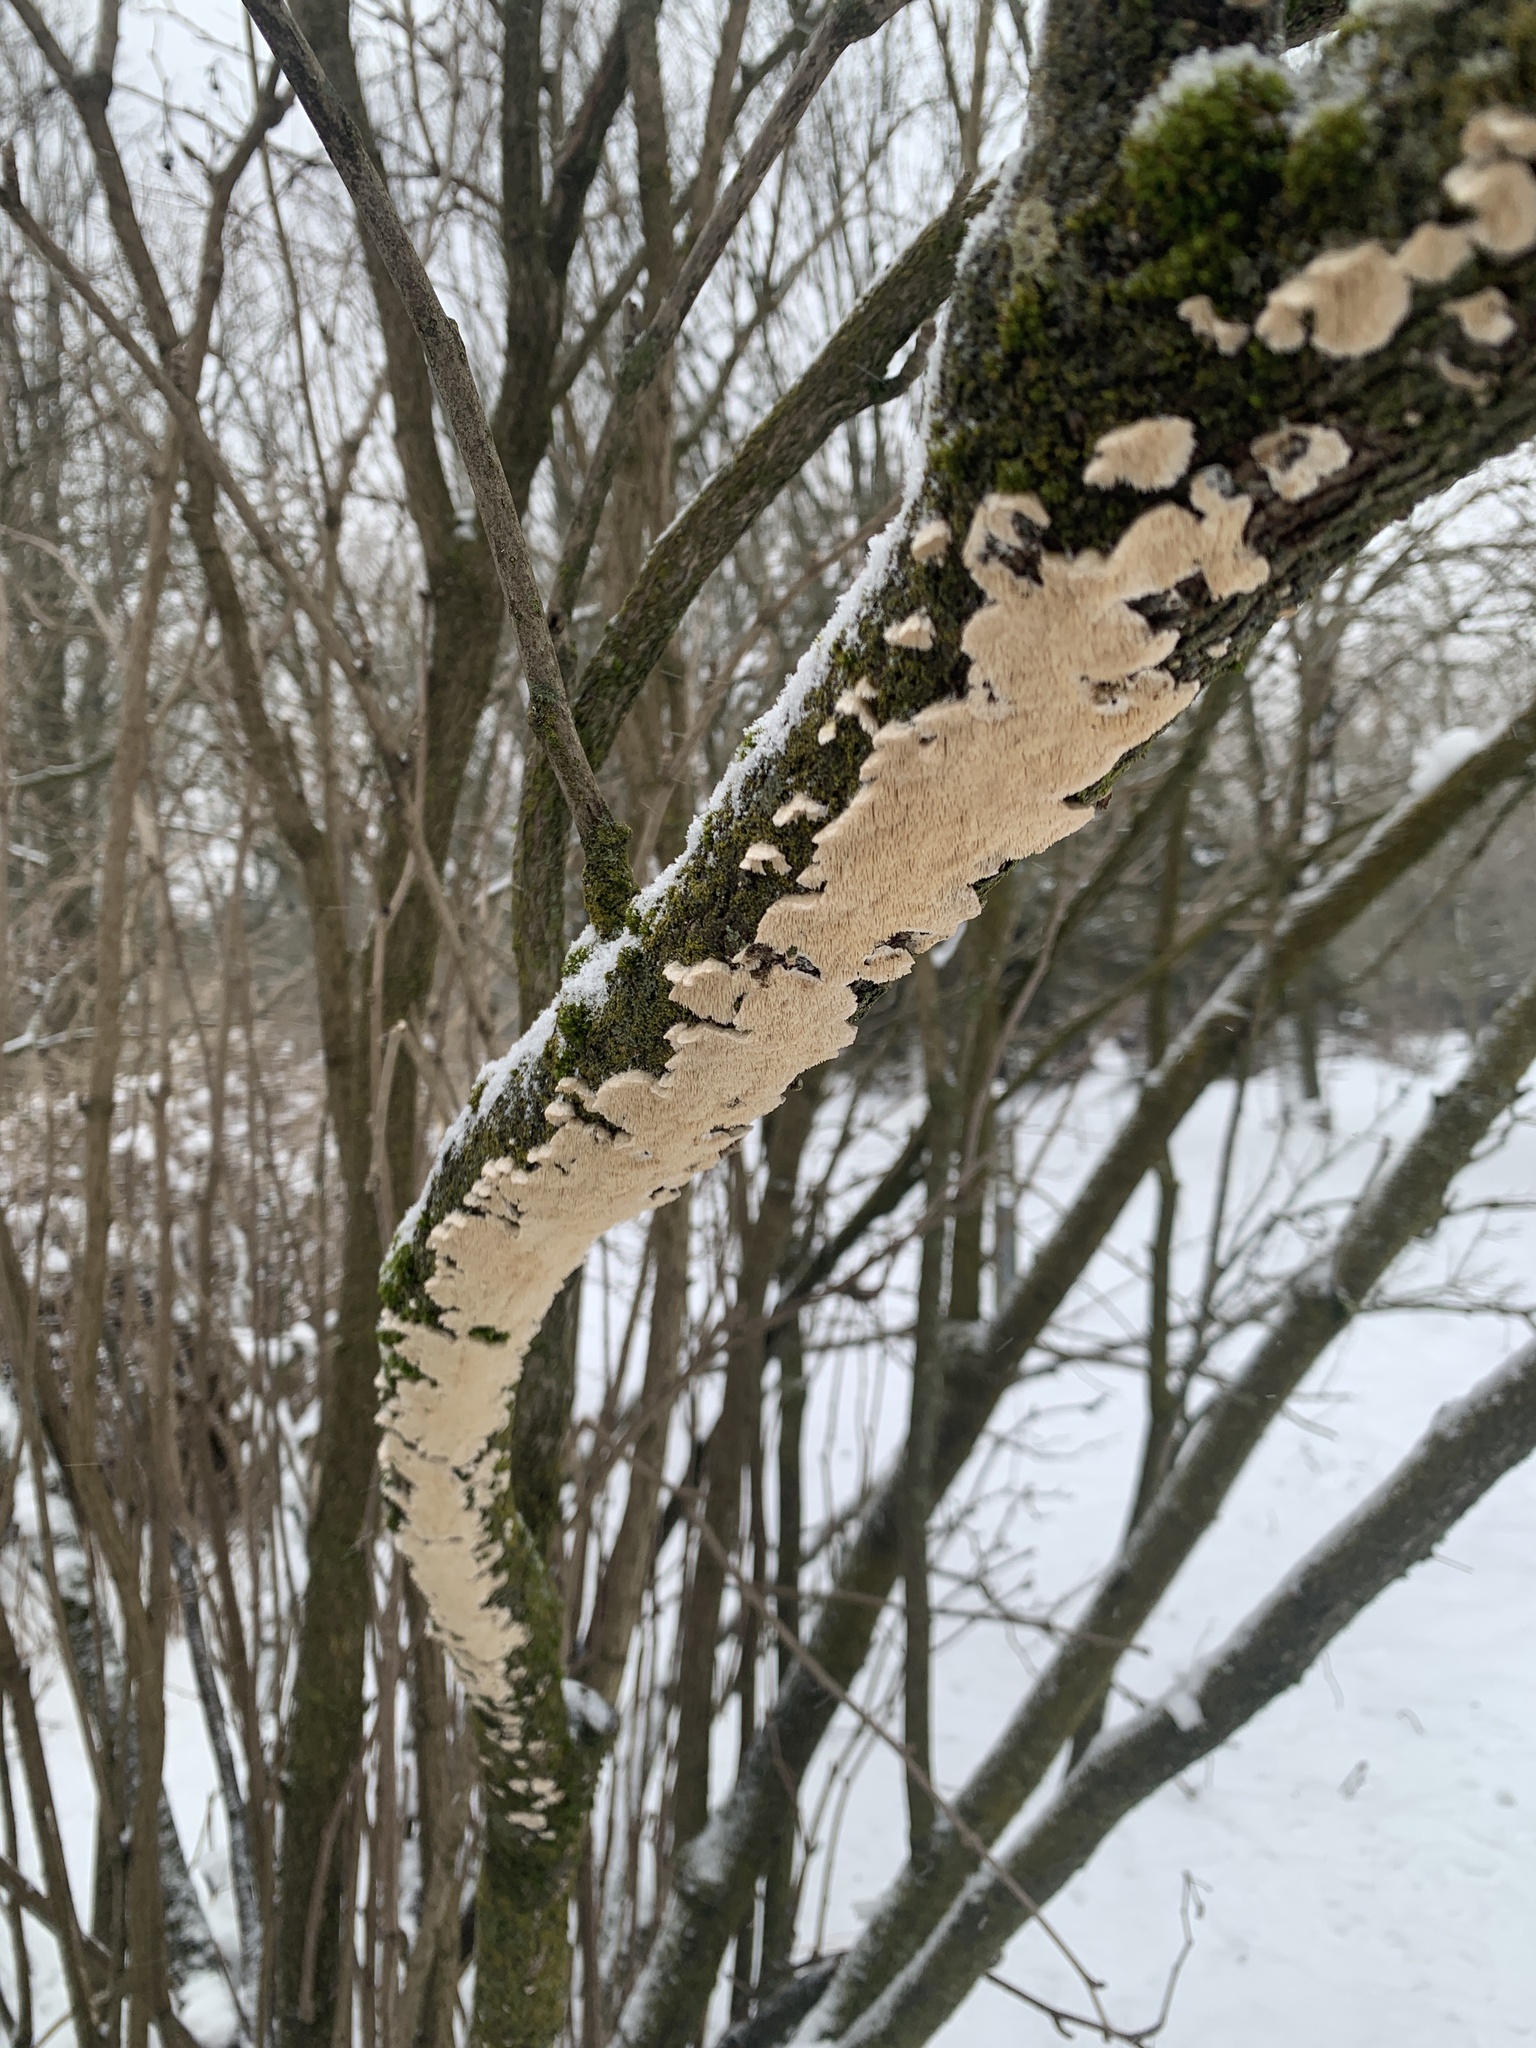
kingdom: Fungi
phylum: Basidiomycota
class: Agaricomycetes
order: Polyporales
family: Irpicaceae
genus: Irpex
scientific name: Irpex lacteus
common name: Milk-white toothed polypore
